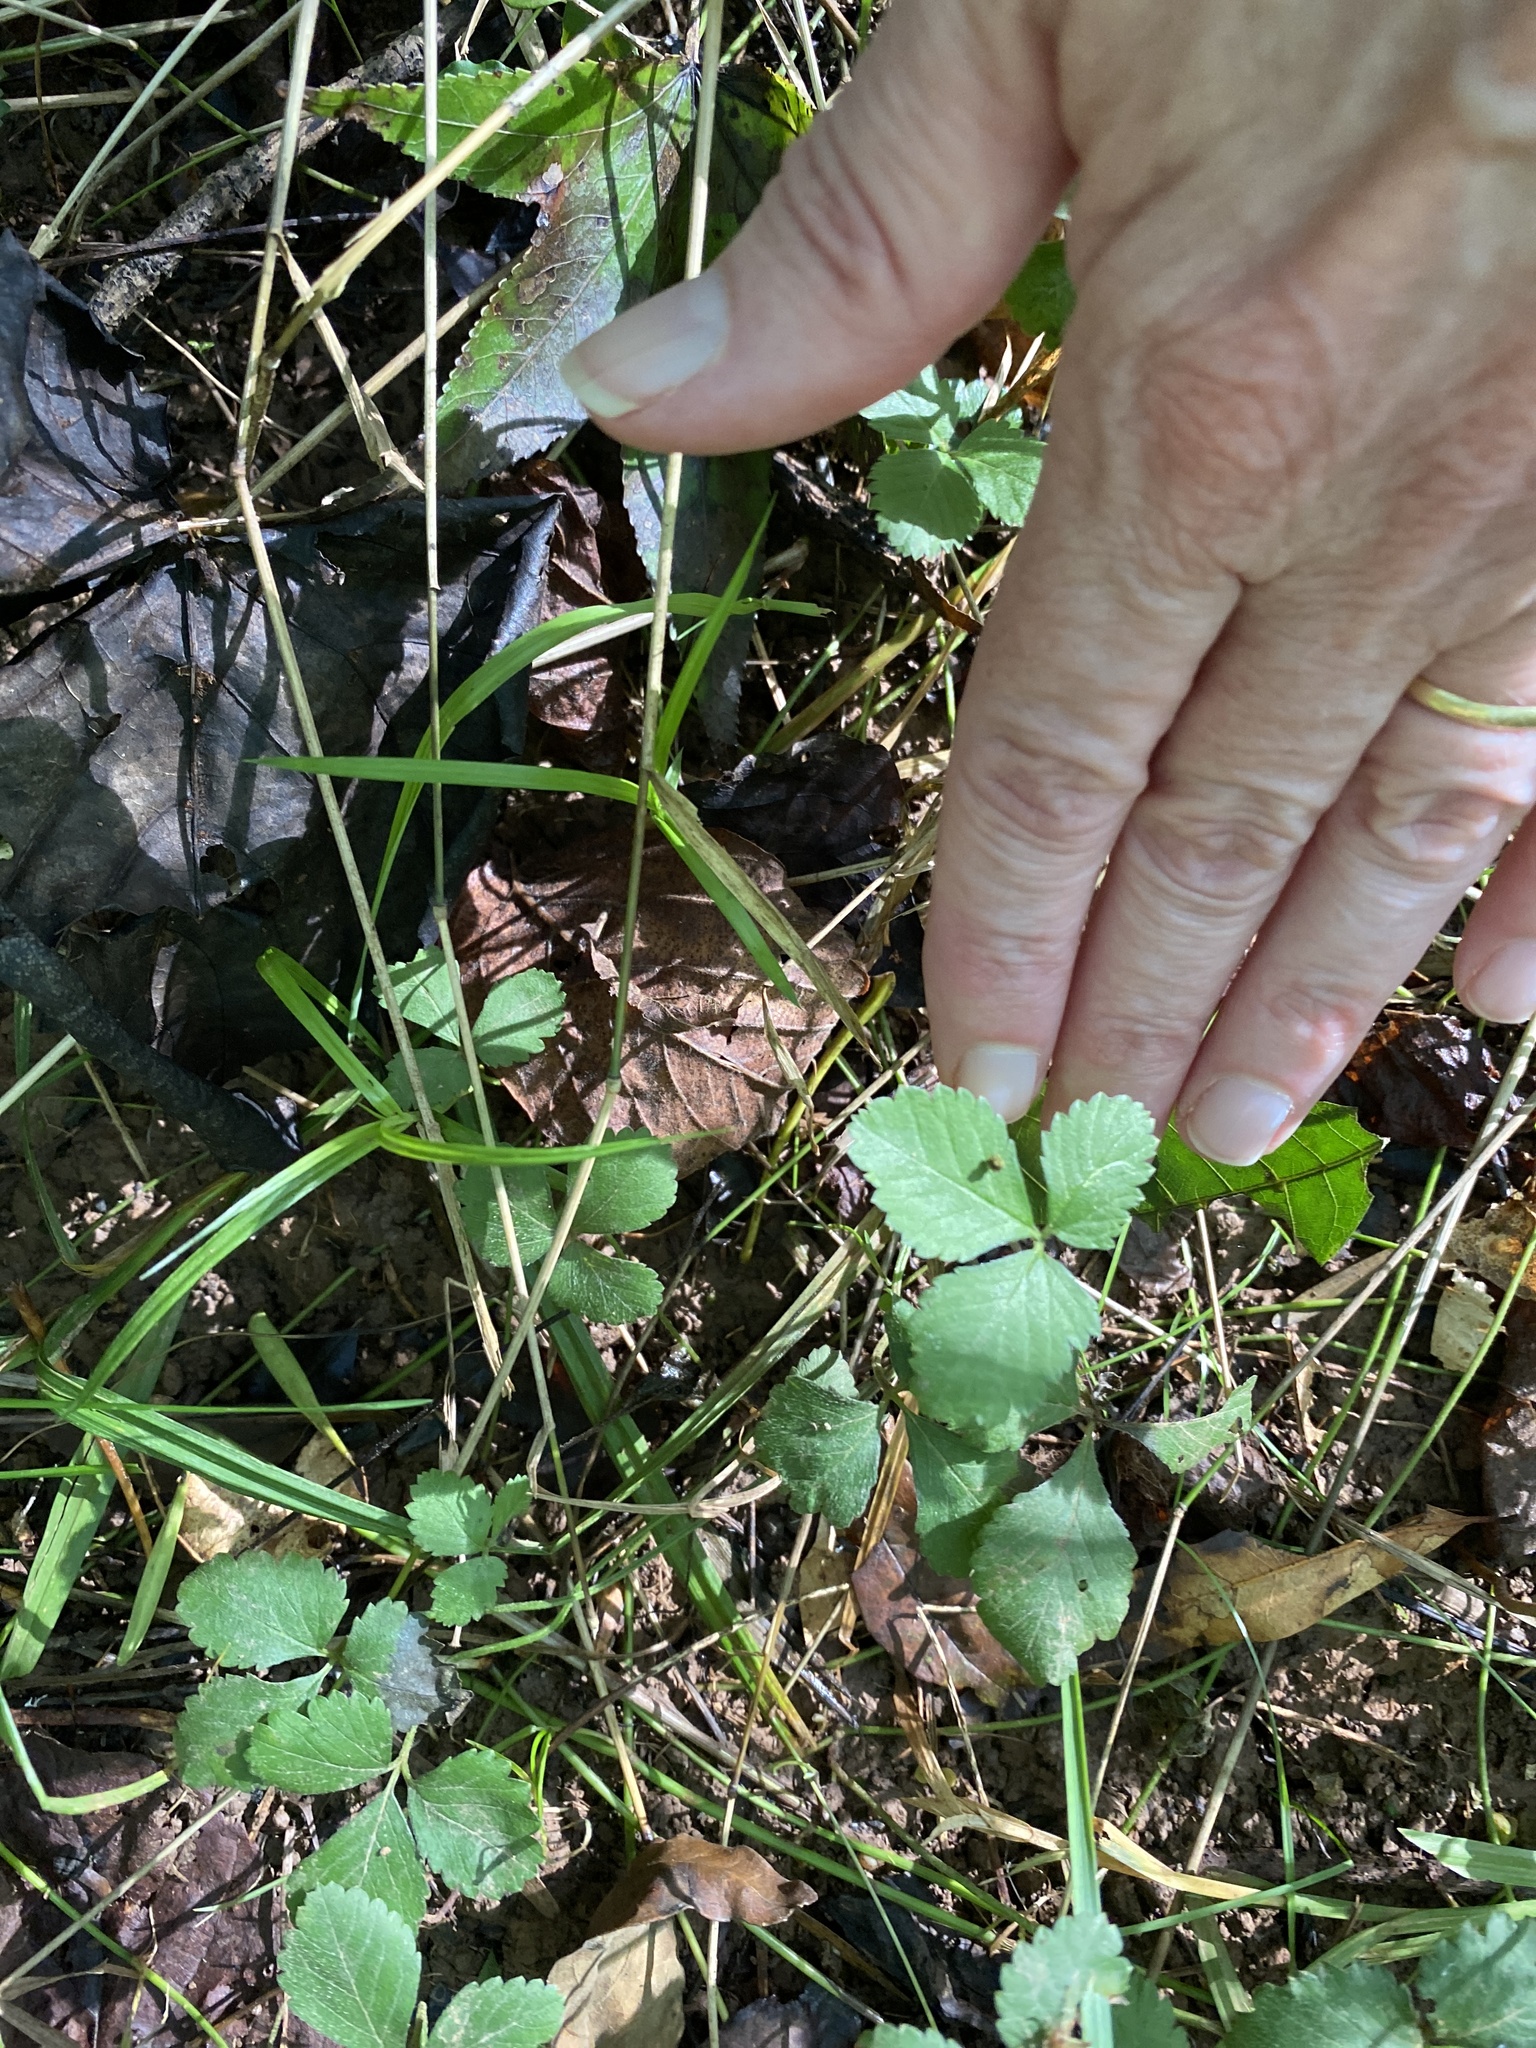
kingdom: Plantae
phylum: Tracheophyta
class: Magnoliopsida
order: Rosales
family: Rosaceae
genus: Potentilla
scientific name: Potentilla indica
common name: Yellow-flowered strawberry
